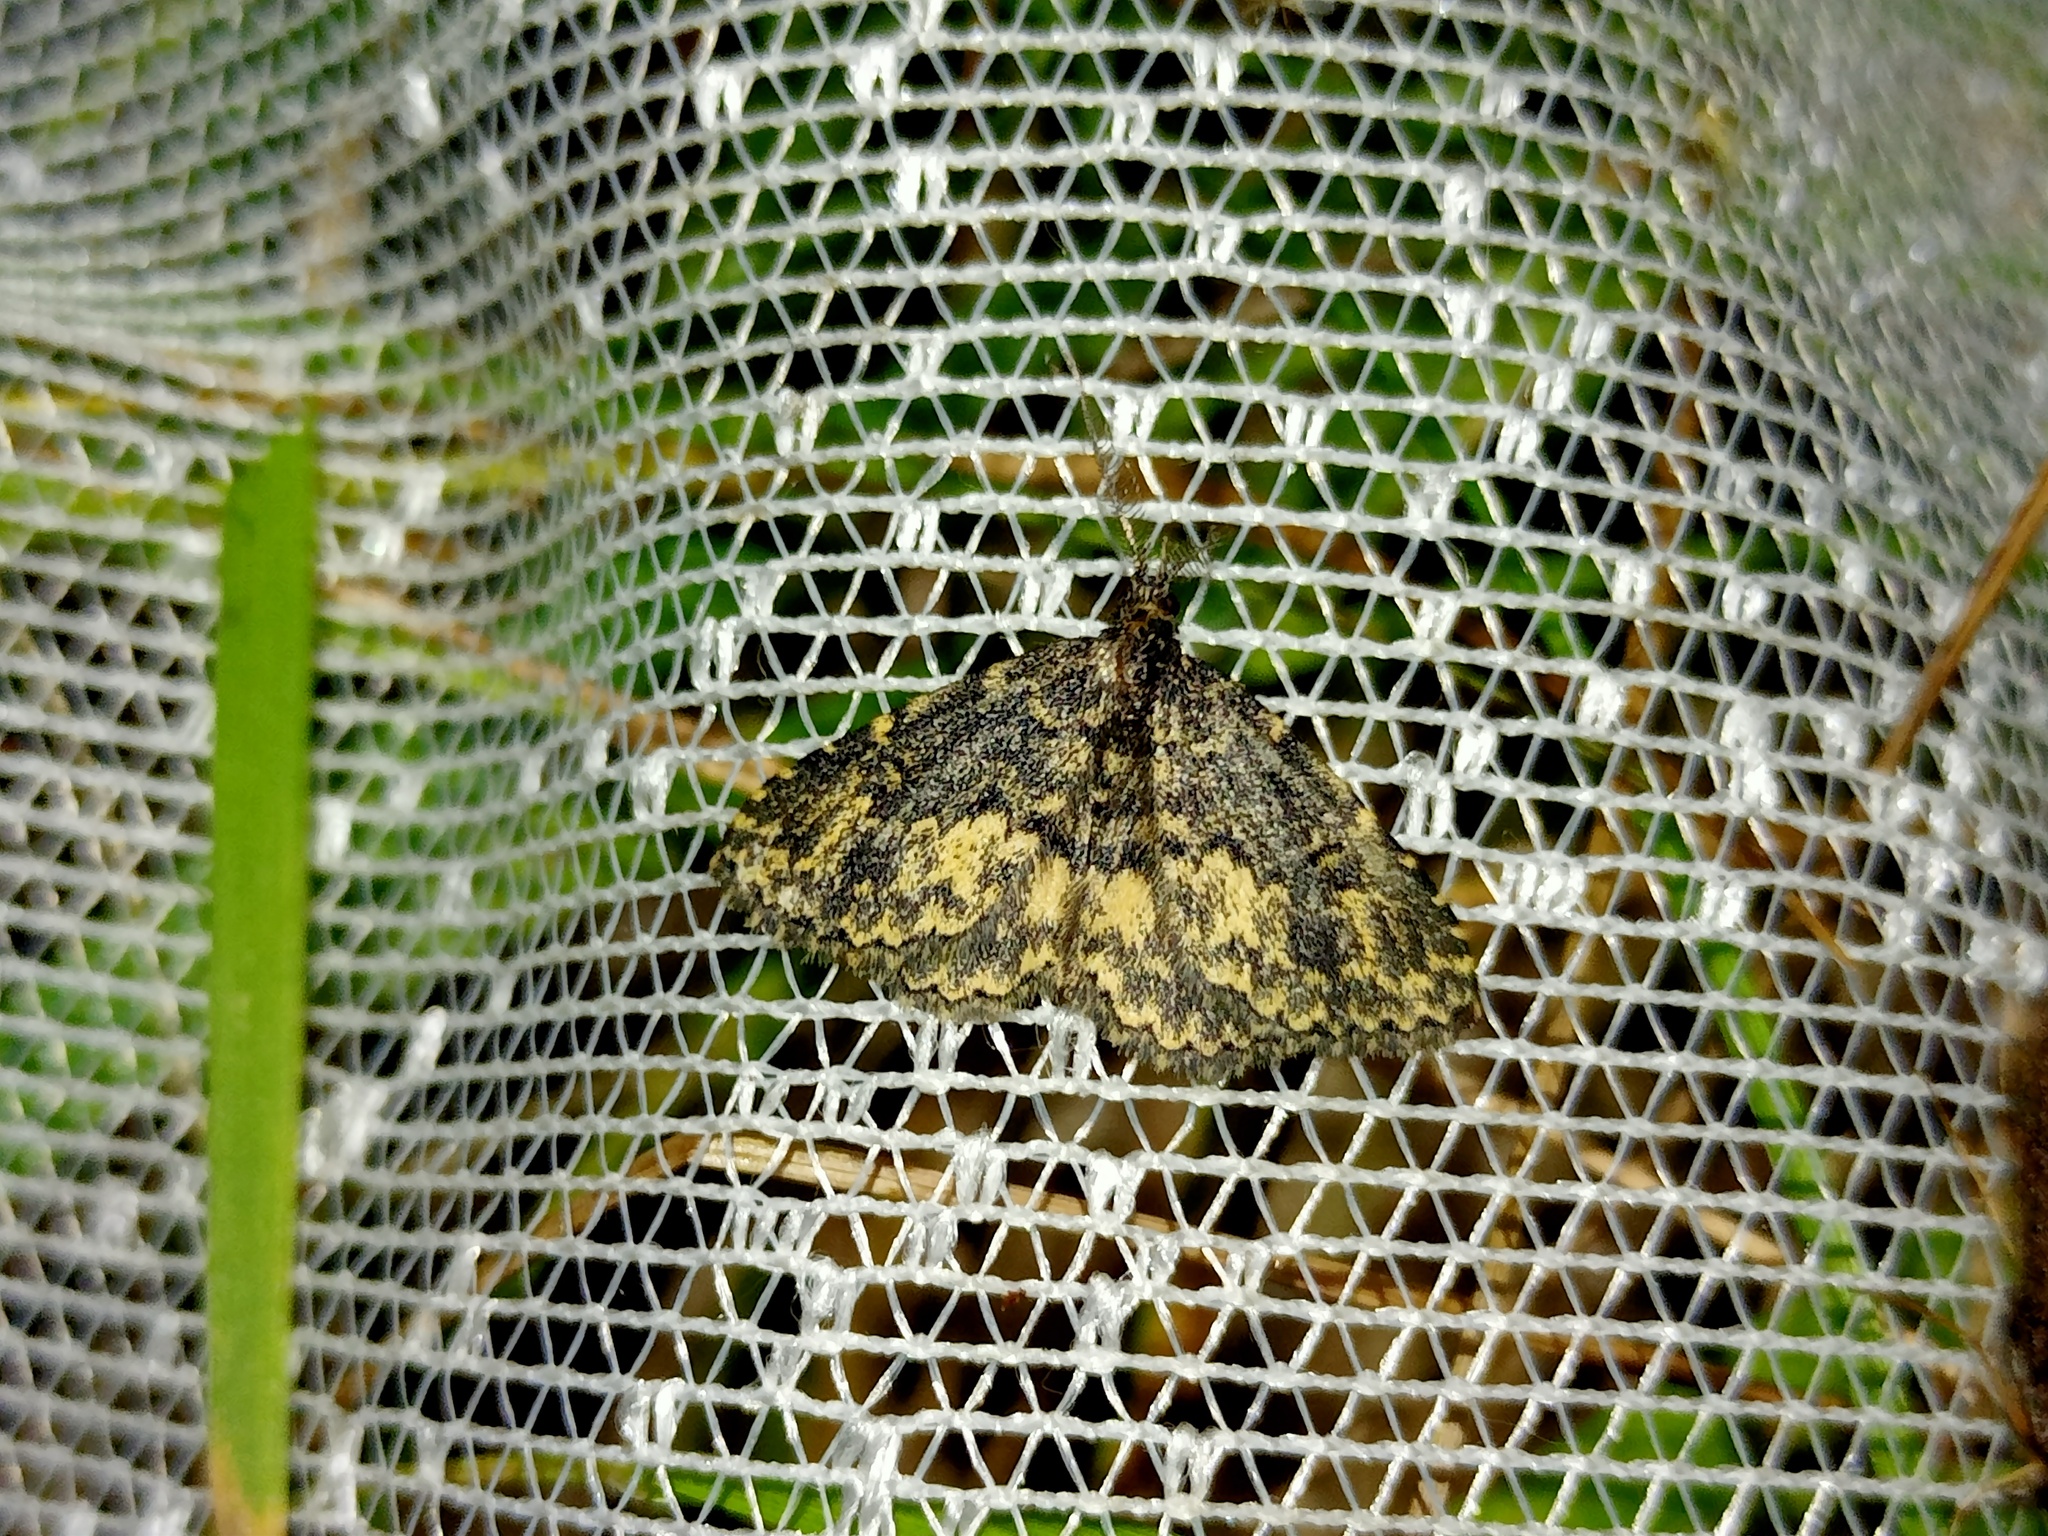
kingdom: Animalia
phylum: Arthropoda
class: Insecta
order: Lepidoptera
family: Erebidae
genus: Parascotia
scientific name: Parascotia fuliginaria
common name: Waved black
